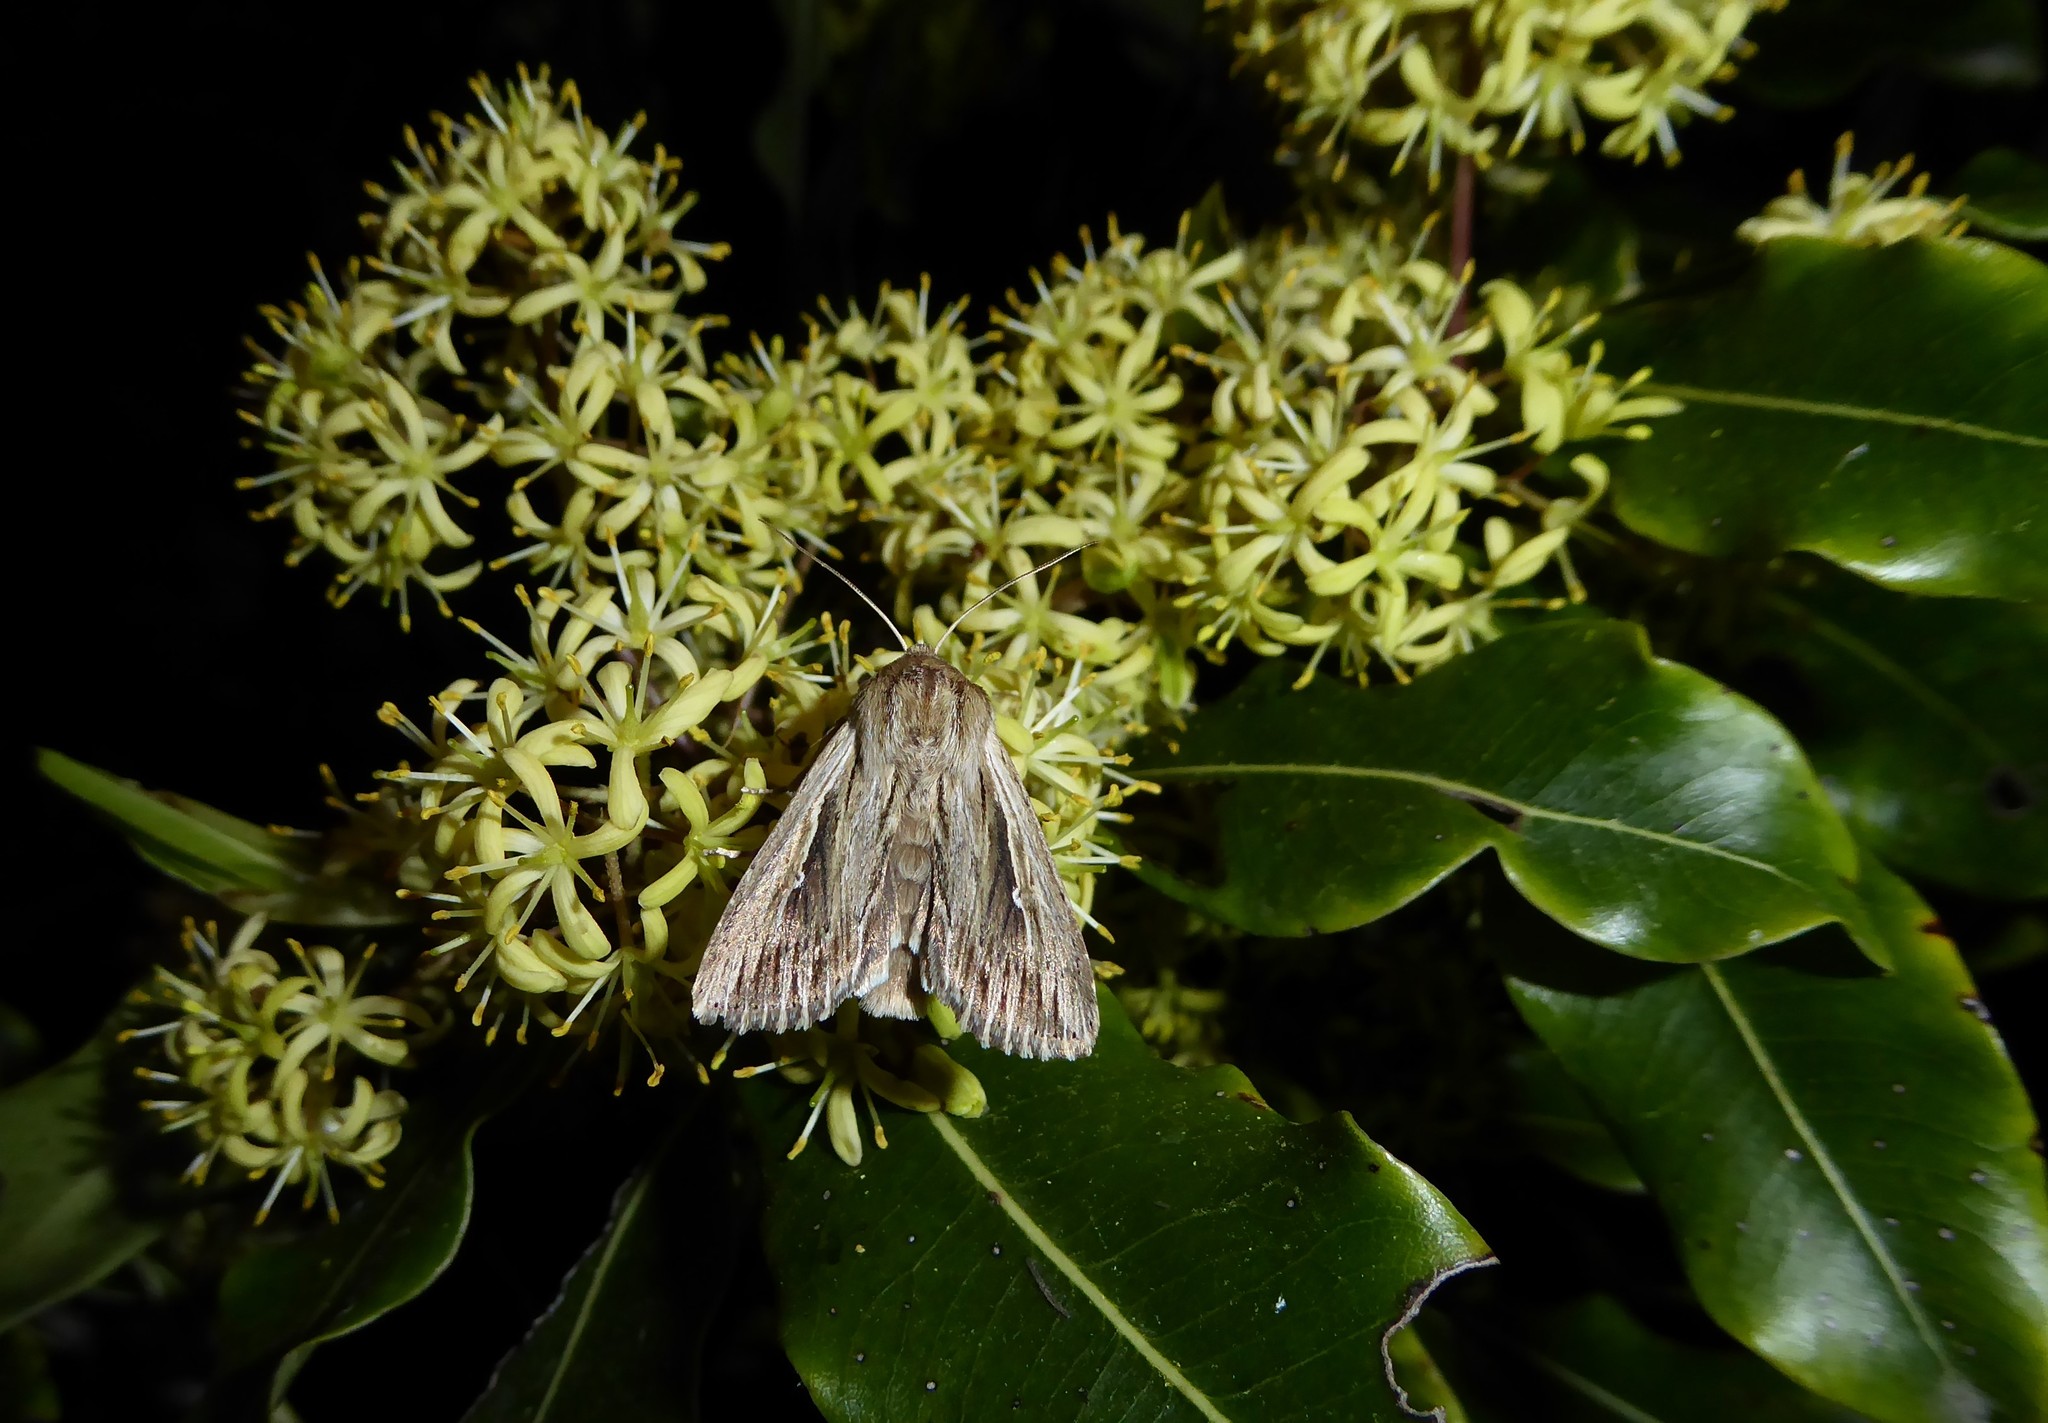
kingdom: Animalia
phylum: Arthropoda
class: Insecta
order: Lepidoptera
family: Noctuidae
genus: Persectania
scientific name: Persectania aversa
